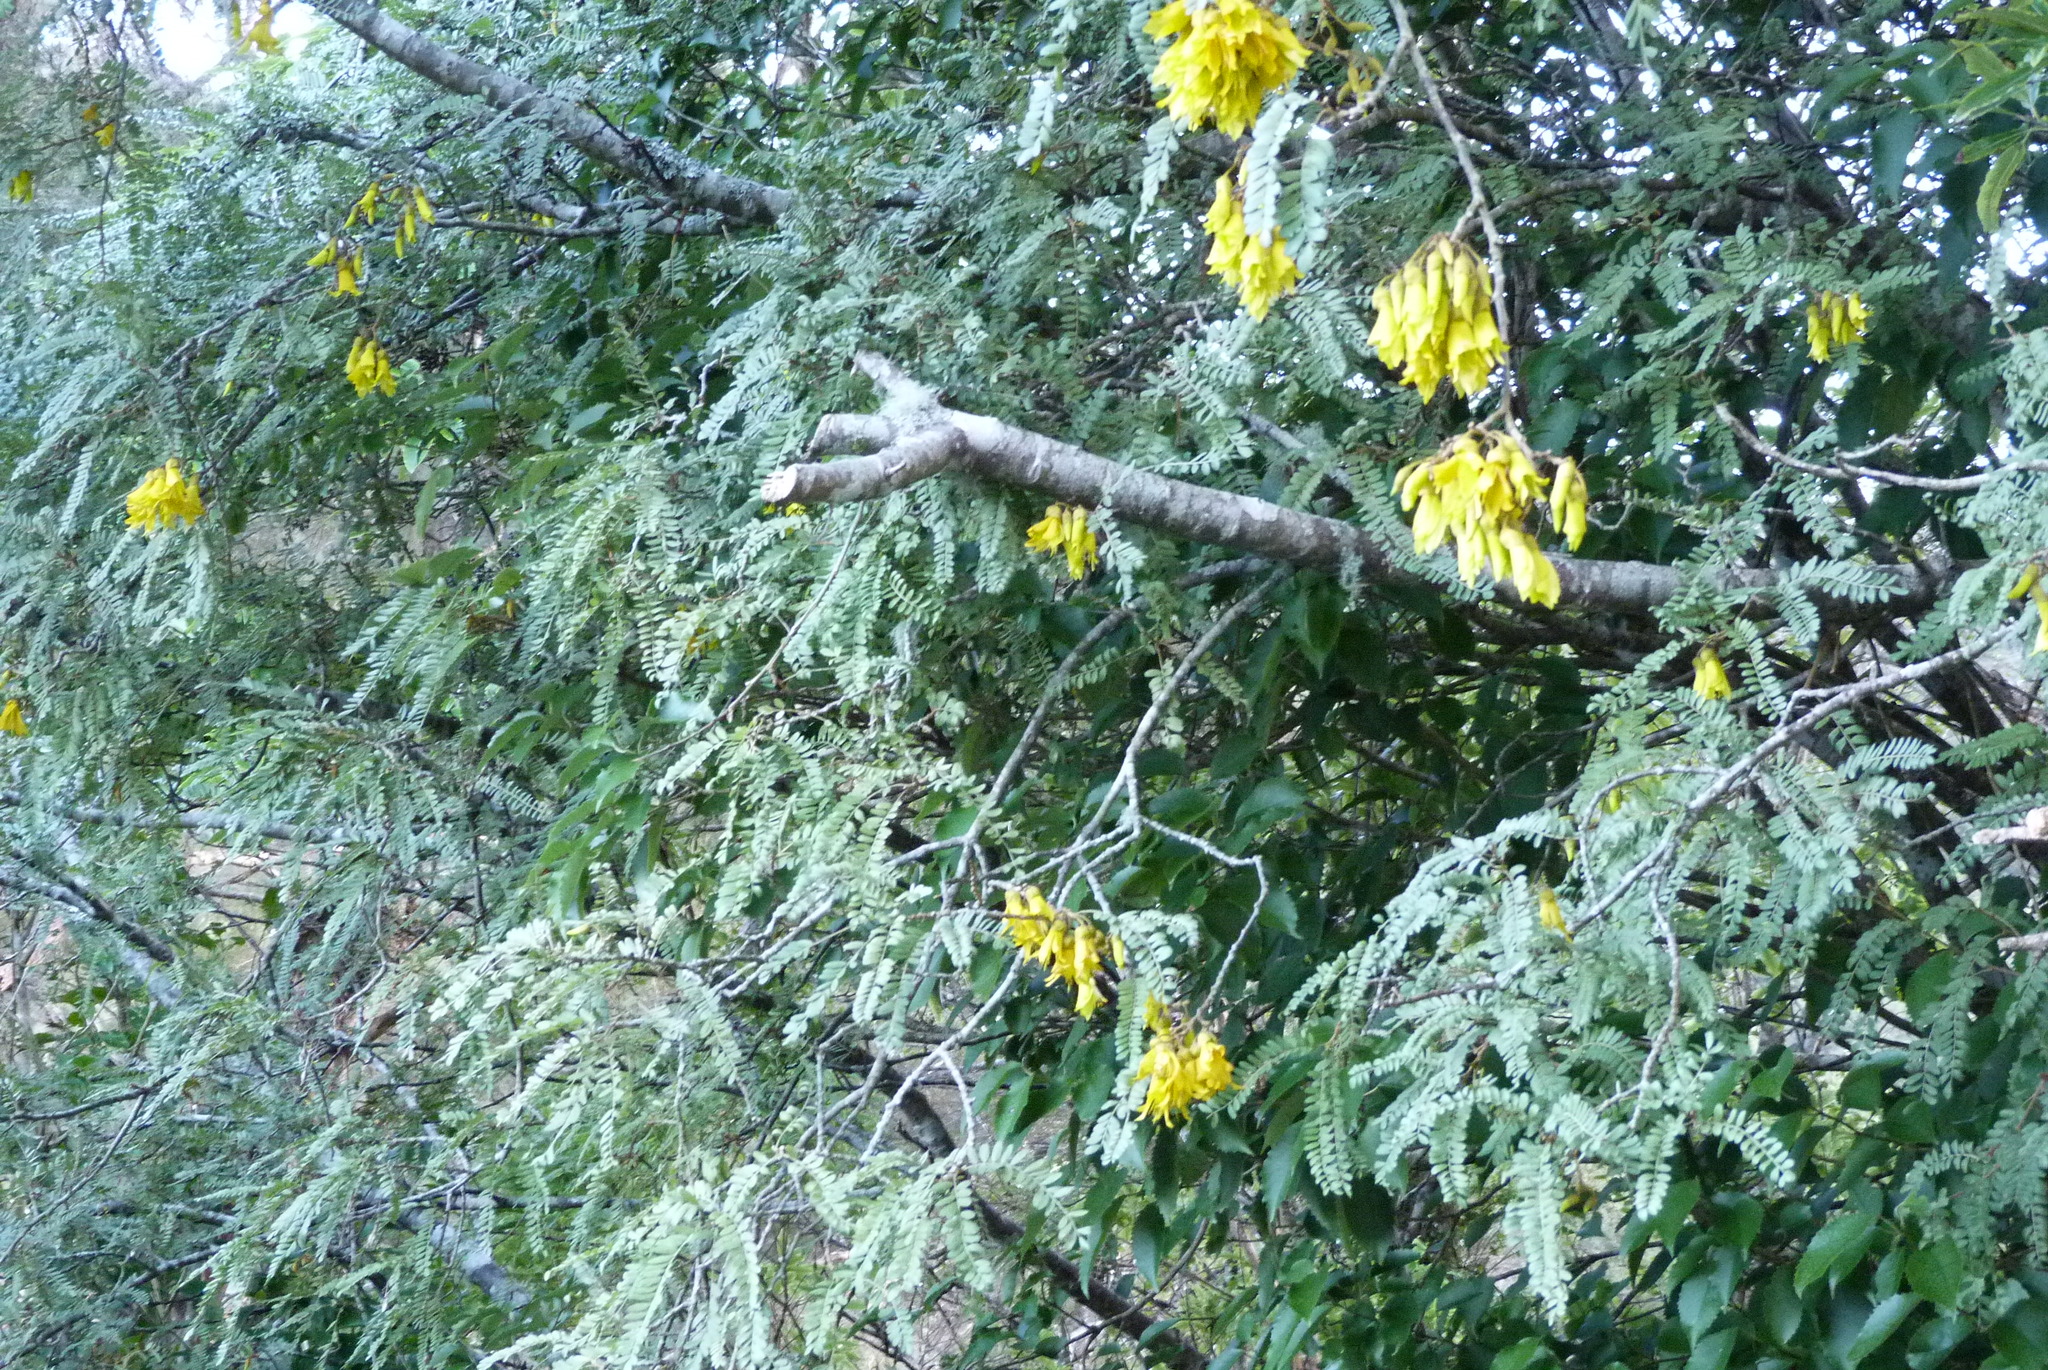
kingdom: Plantae
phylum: Tracheophyta
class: Magnoliopsida
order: Fabales
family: Fabaceae
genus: Sophora
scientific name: Sophora microphylla
